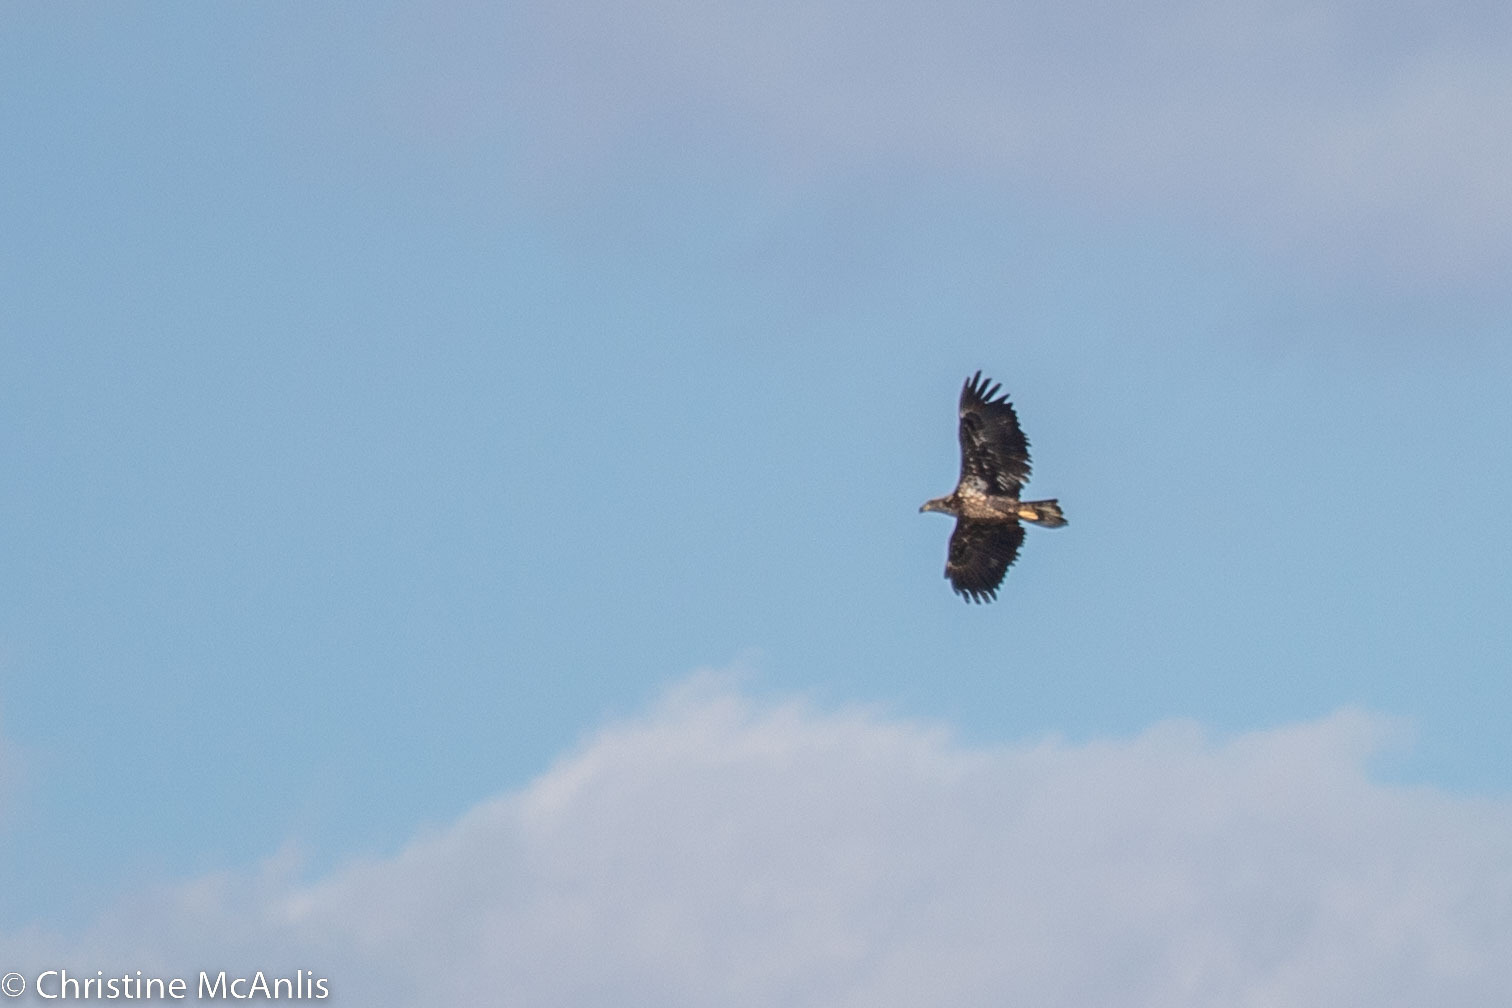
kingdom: Animalia
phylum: Chordata
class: Aves
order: Accipitriformes
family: Accipitridae
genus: Haliaeetus
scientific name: Haliaeetus leucocephalus
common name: Bald eagle
